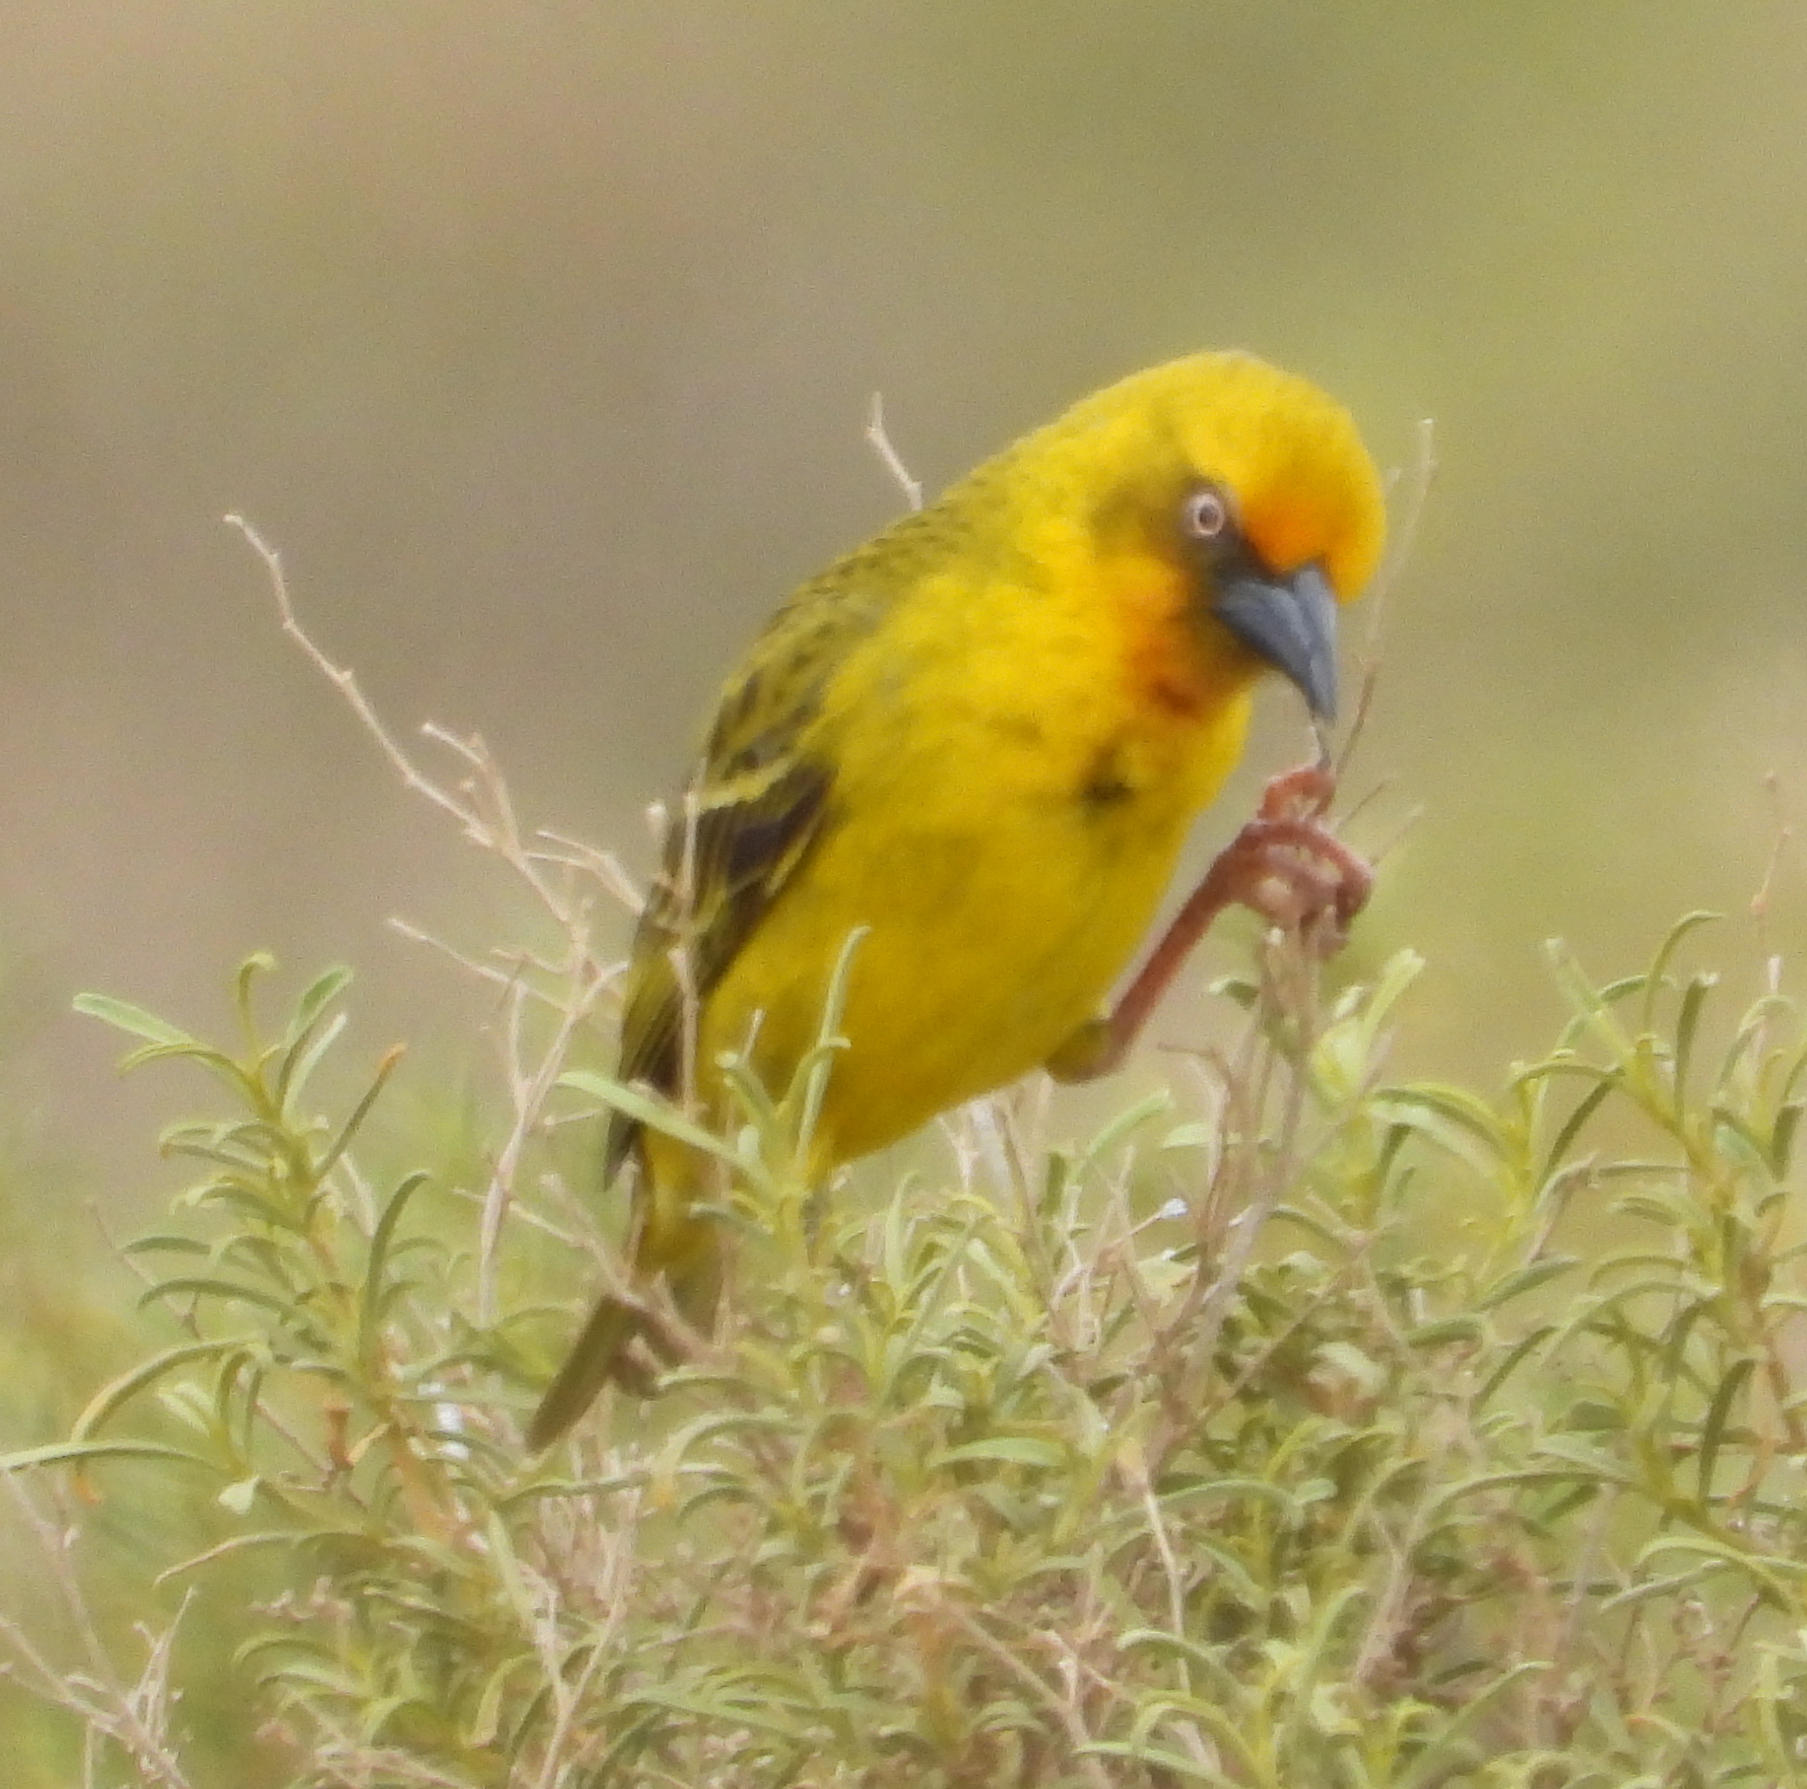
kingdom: Animalia
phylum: Chordata
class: Aves
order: Passeriformes
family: Ploceidae
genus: Ploceus
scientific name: Ploceus capensis
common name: Cape weaver
